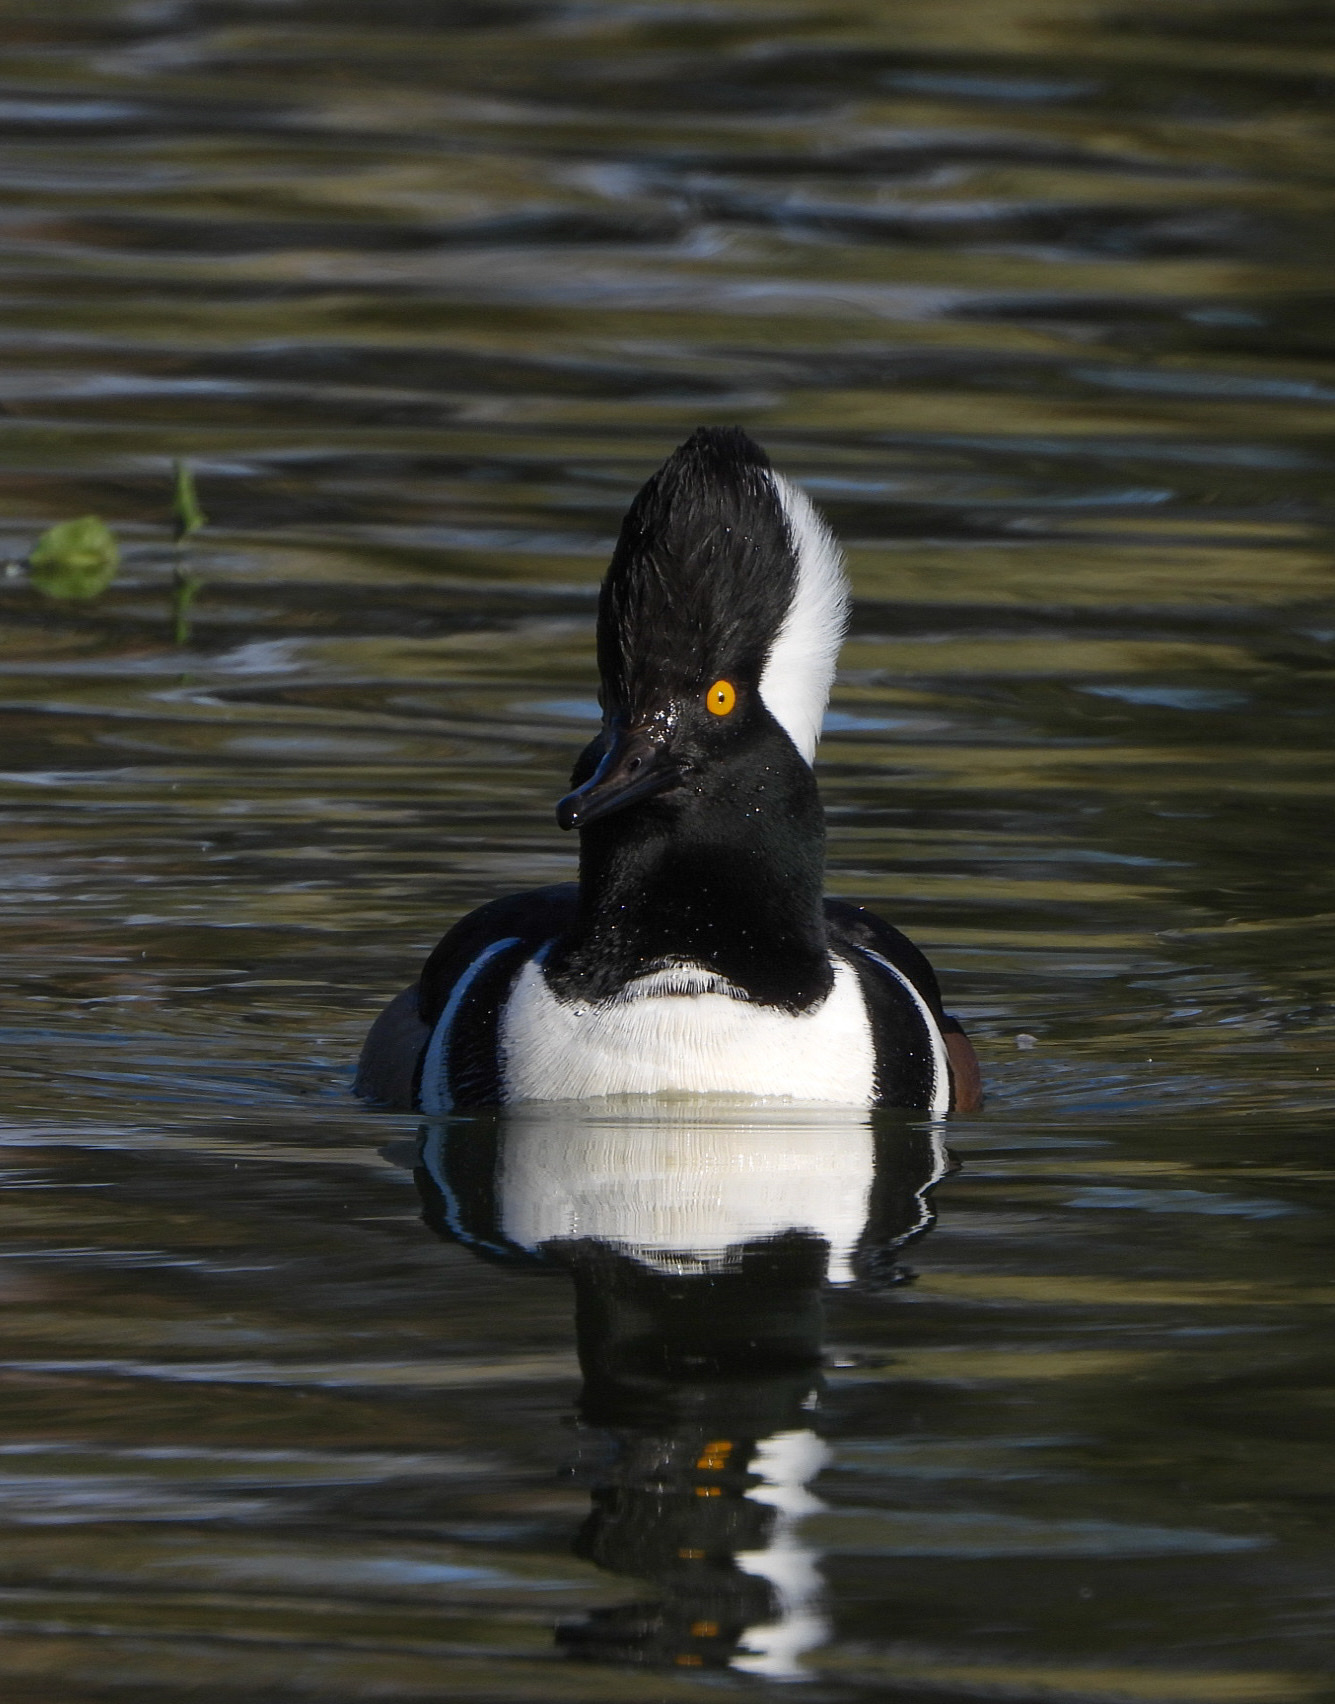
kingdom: Animalia
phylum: Chordata
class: Aves
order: Anseriformes
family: Anatidae
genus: Lophodytes
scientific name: Lophodytes cucullatus
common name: Hooded merganser
